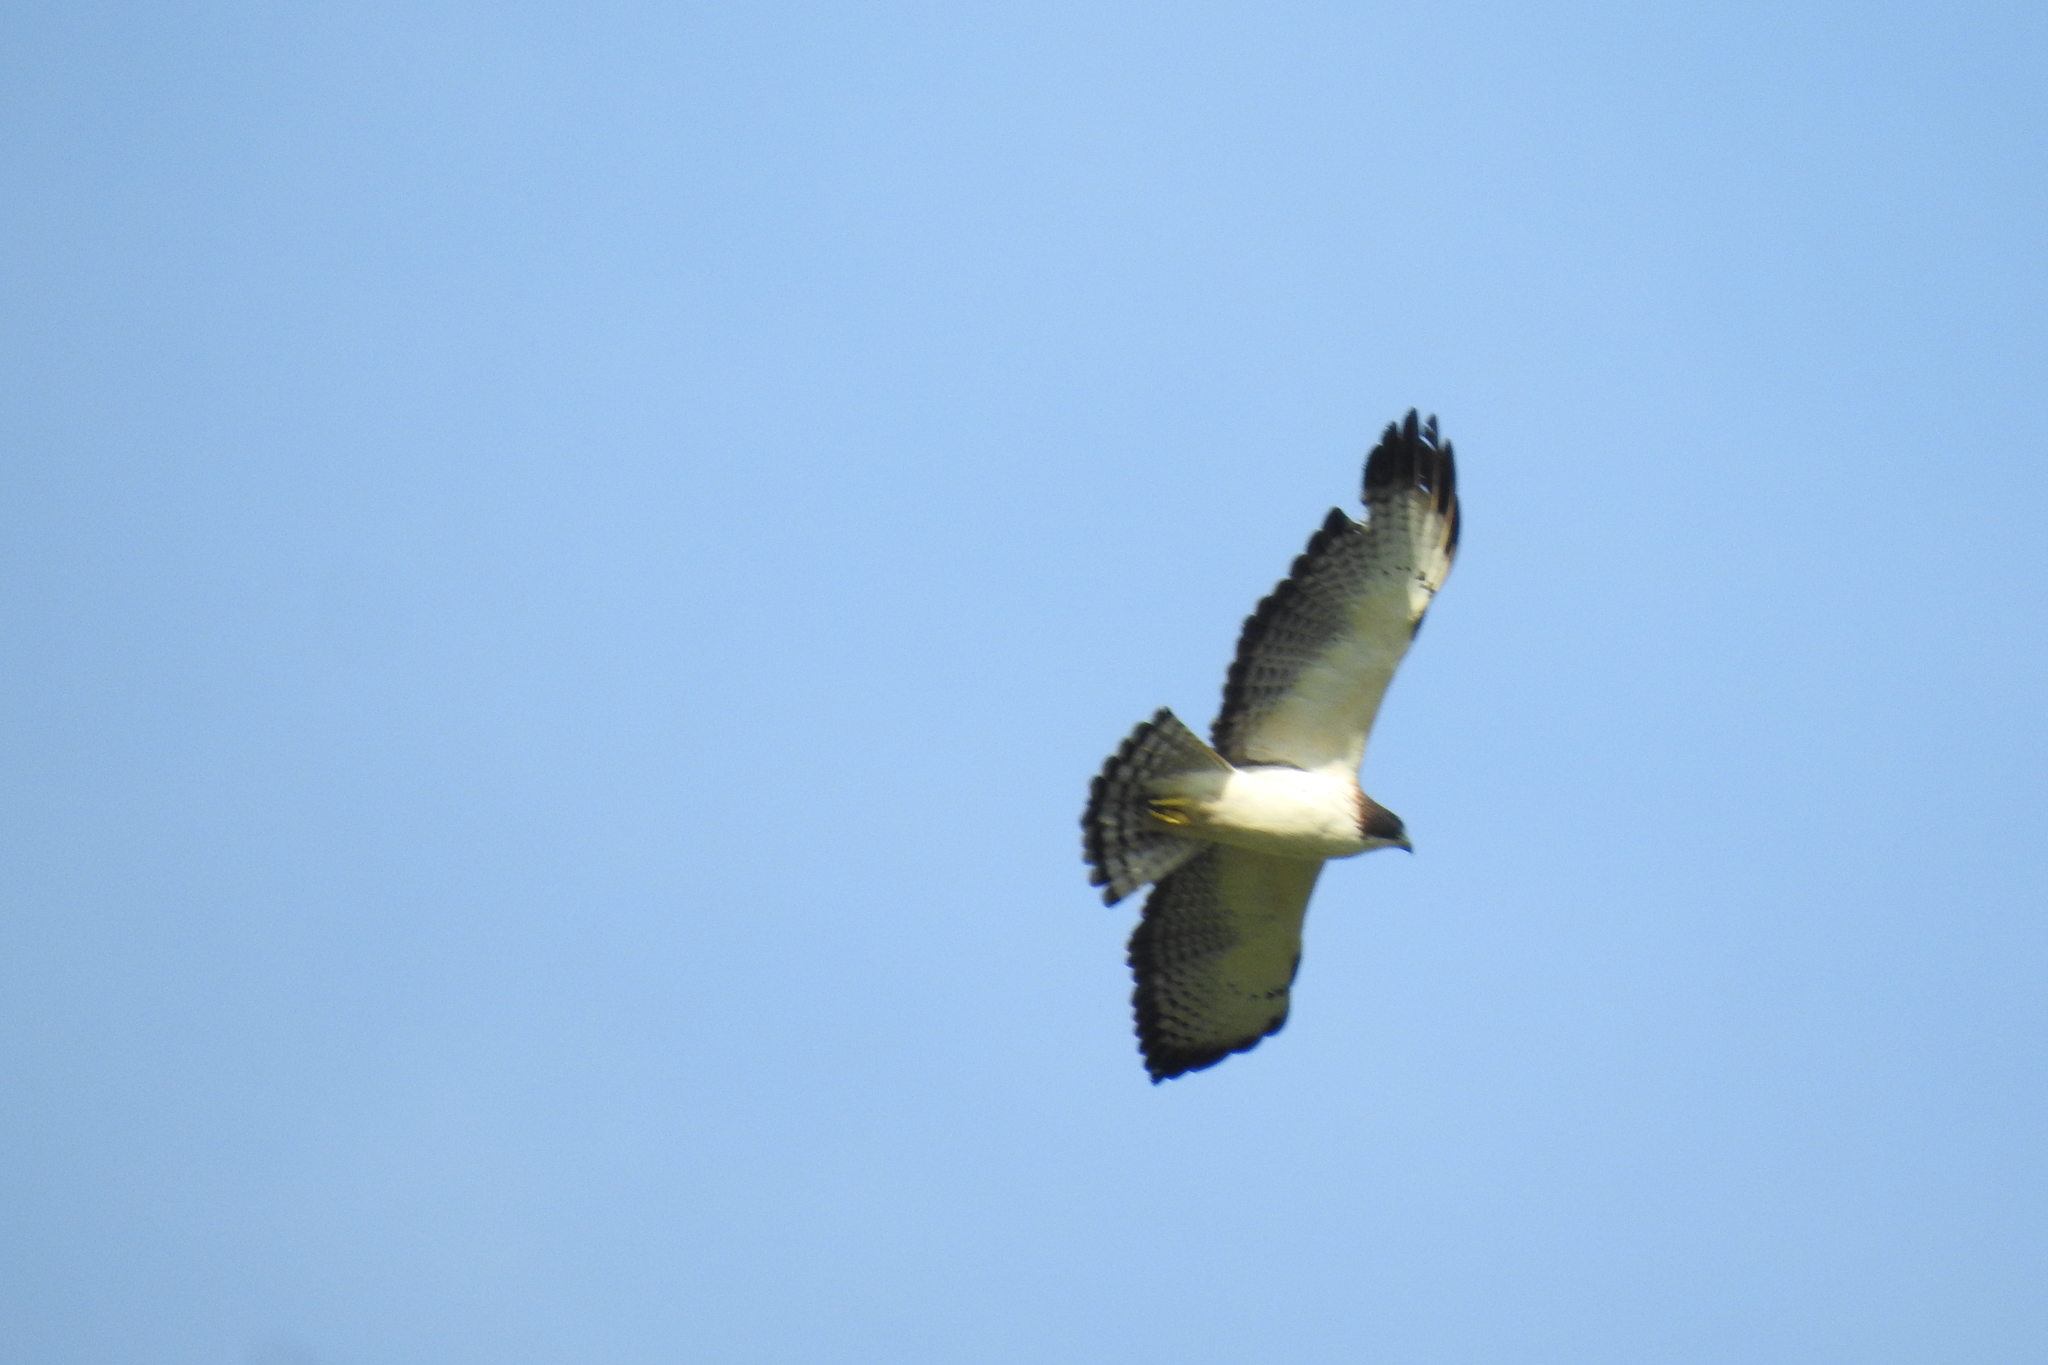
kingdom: Animalia
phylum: Chordata
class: Aves
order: Accipitriformes
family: Accipitridae
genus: Buteo
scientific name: Buteo brachyurus
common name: Short-tailed hawk
